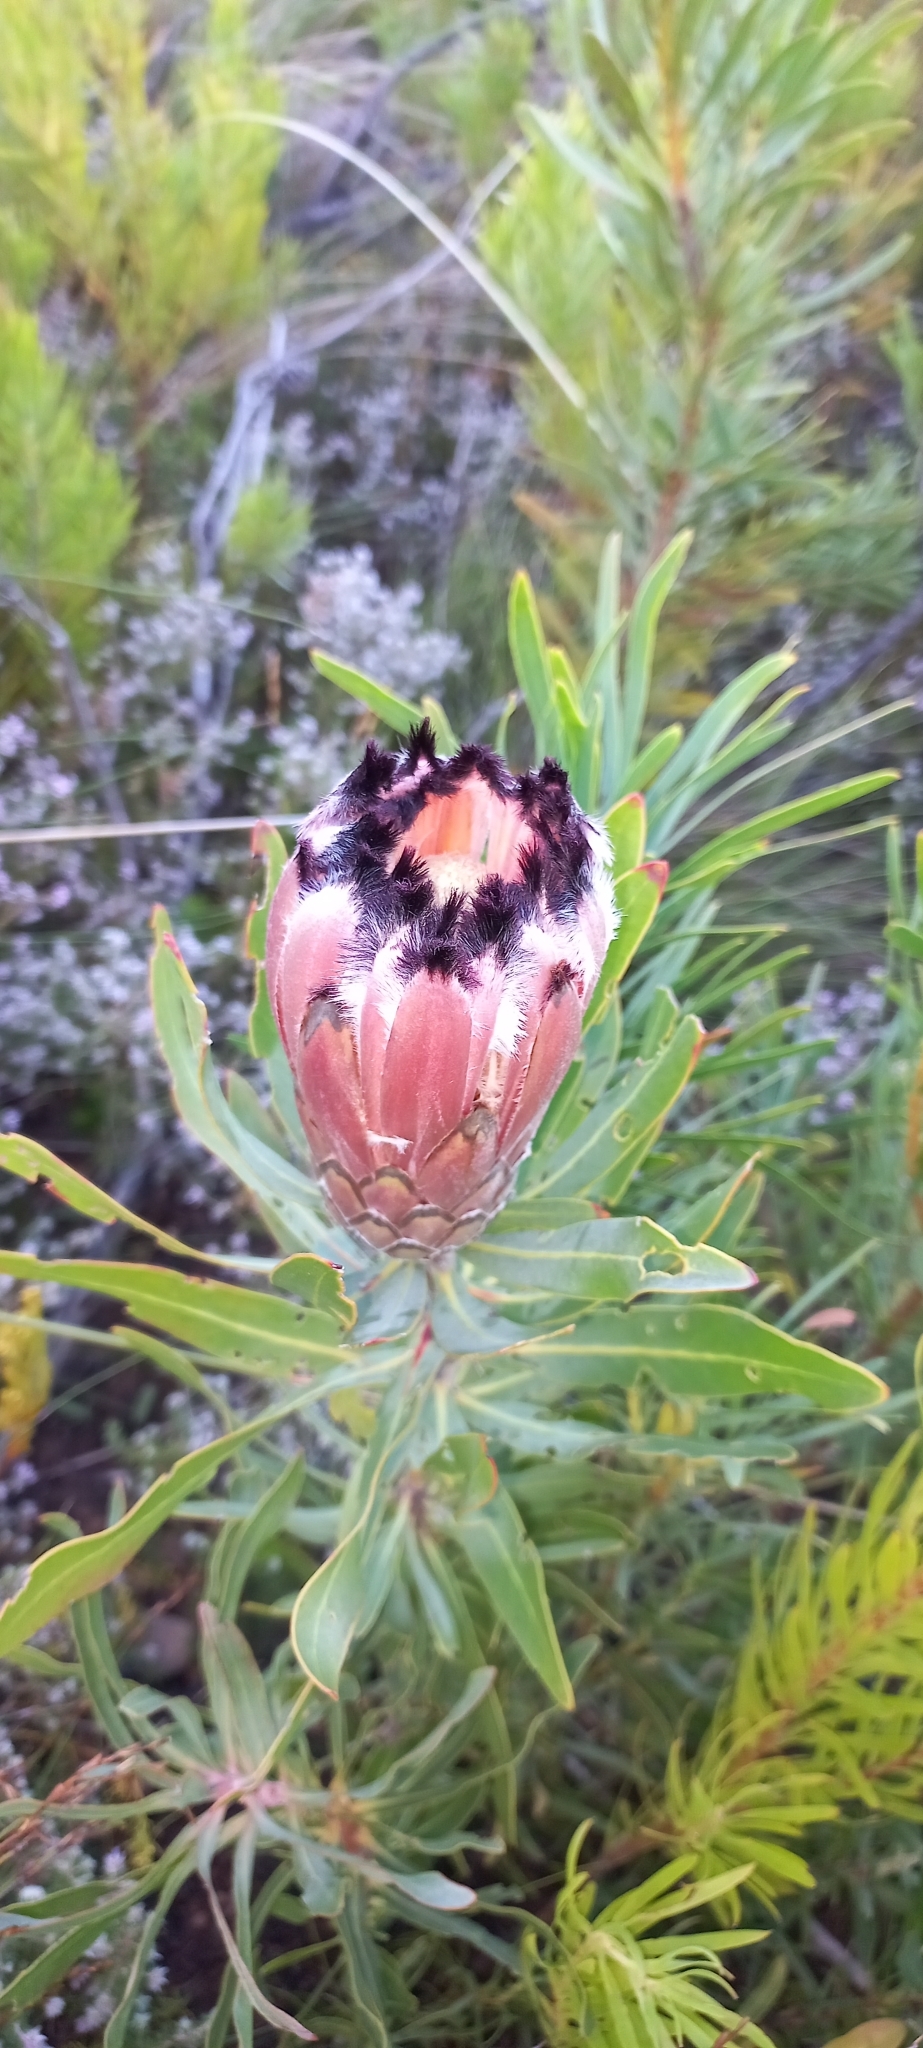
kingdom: Plantae
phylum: Tracheophyta
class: Magnoliopsida
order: Proteales
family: Proteaceae
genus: Protea
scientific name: Protea neriifolia
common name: Blue sugarbush
